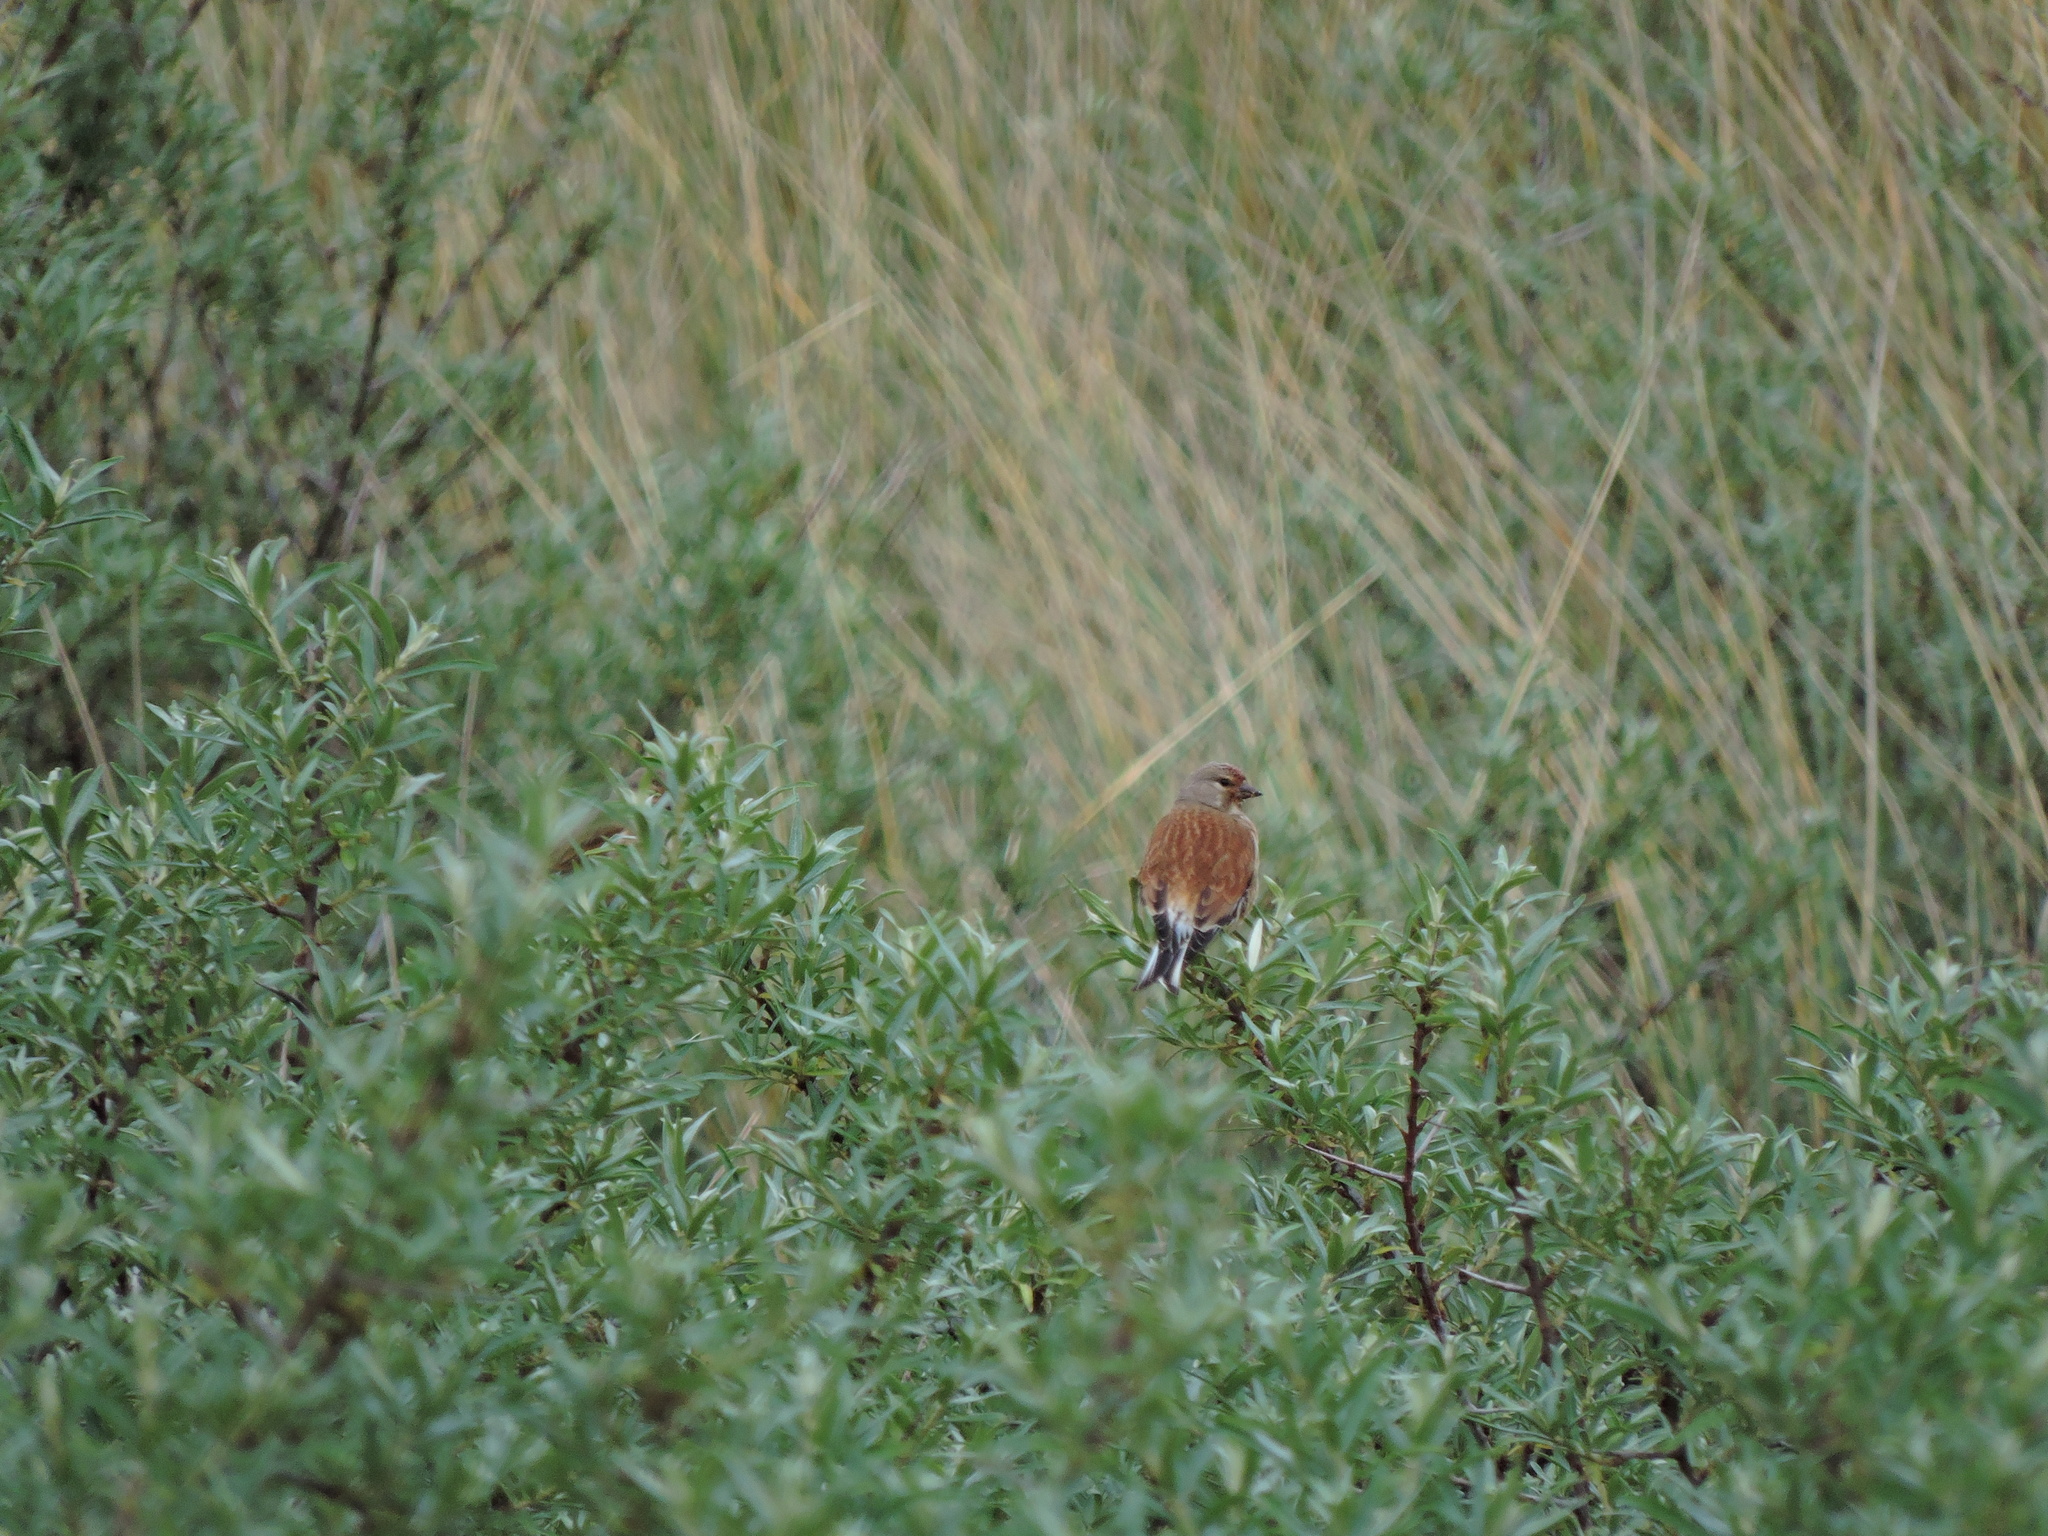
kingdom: Animalia
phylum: Chordata
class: Aves
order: Passeriformes
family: Fringillidae
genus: Linaria
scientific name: Linaria cannabina
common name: Common linnet
